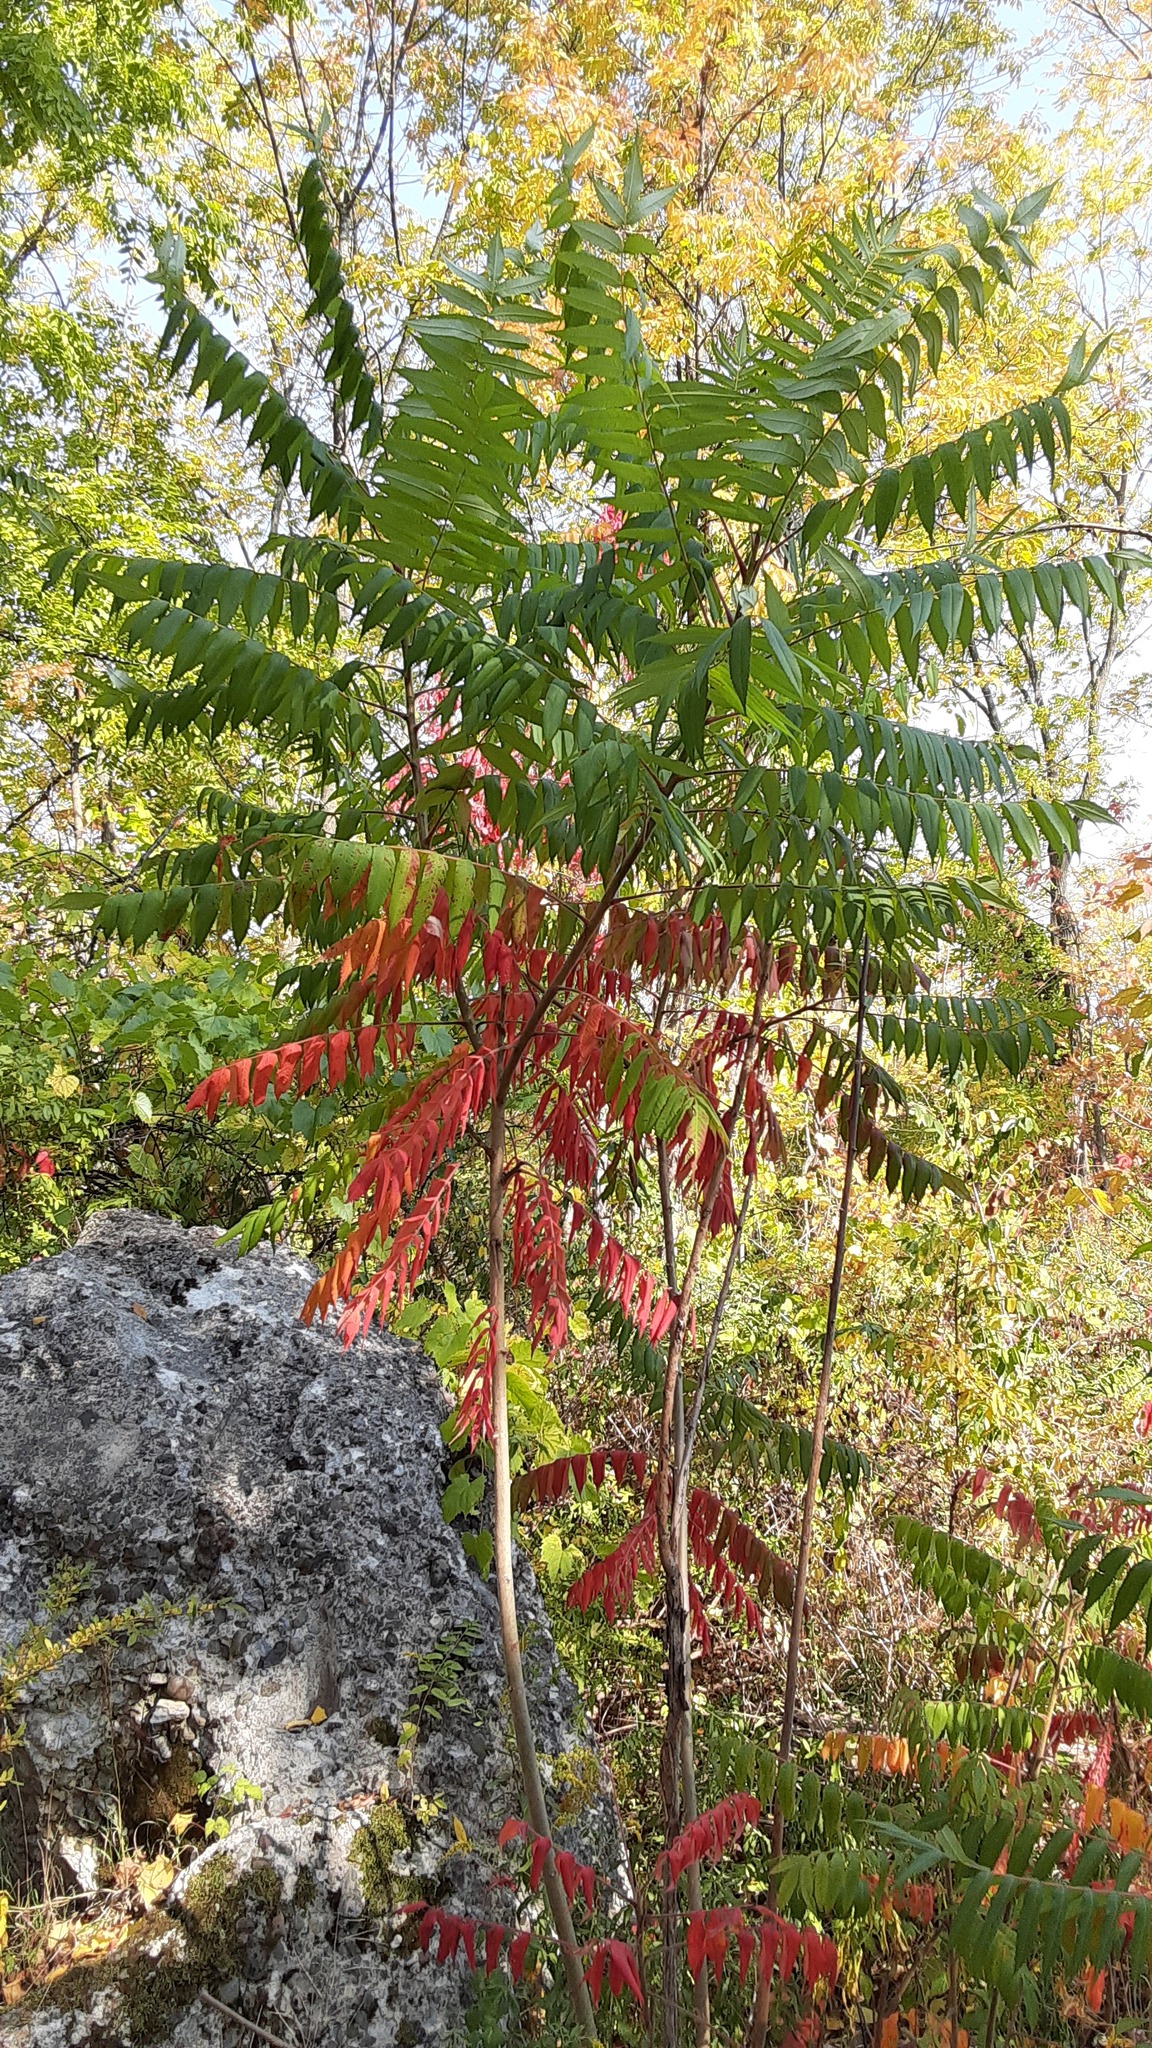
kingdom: Plantae
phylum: Tracheophyta
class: Magnoliopsida
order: Sapindales
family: Anacardiaceae
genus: Rhus
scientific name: Rhus typhina
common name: Staghorn sumac
